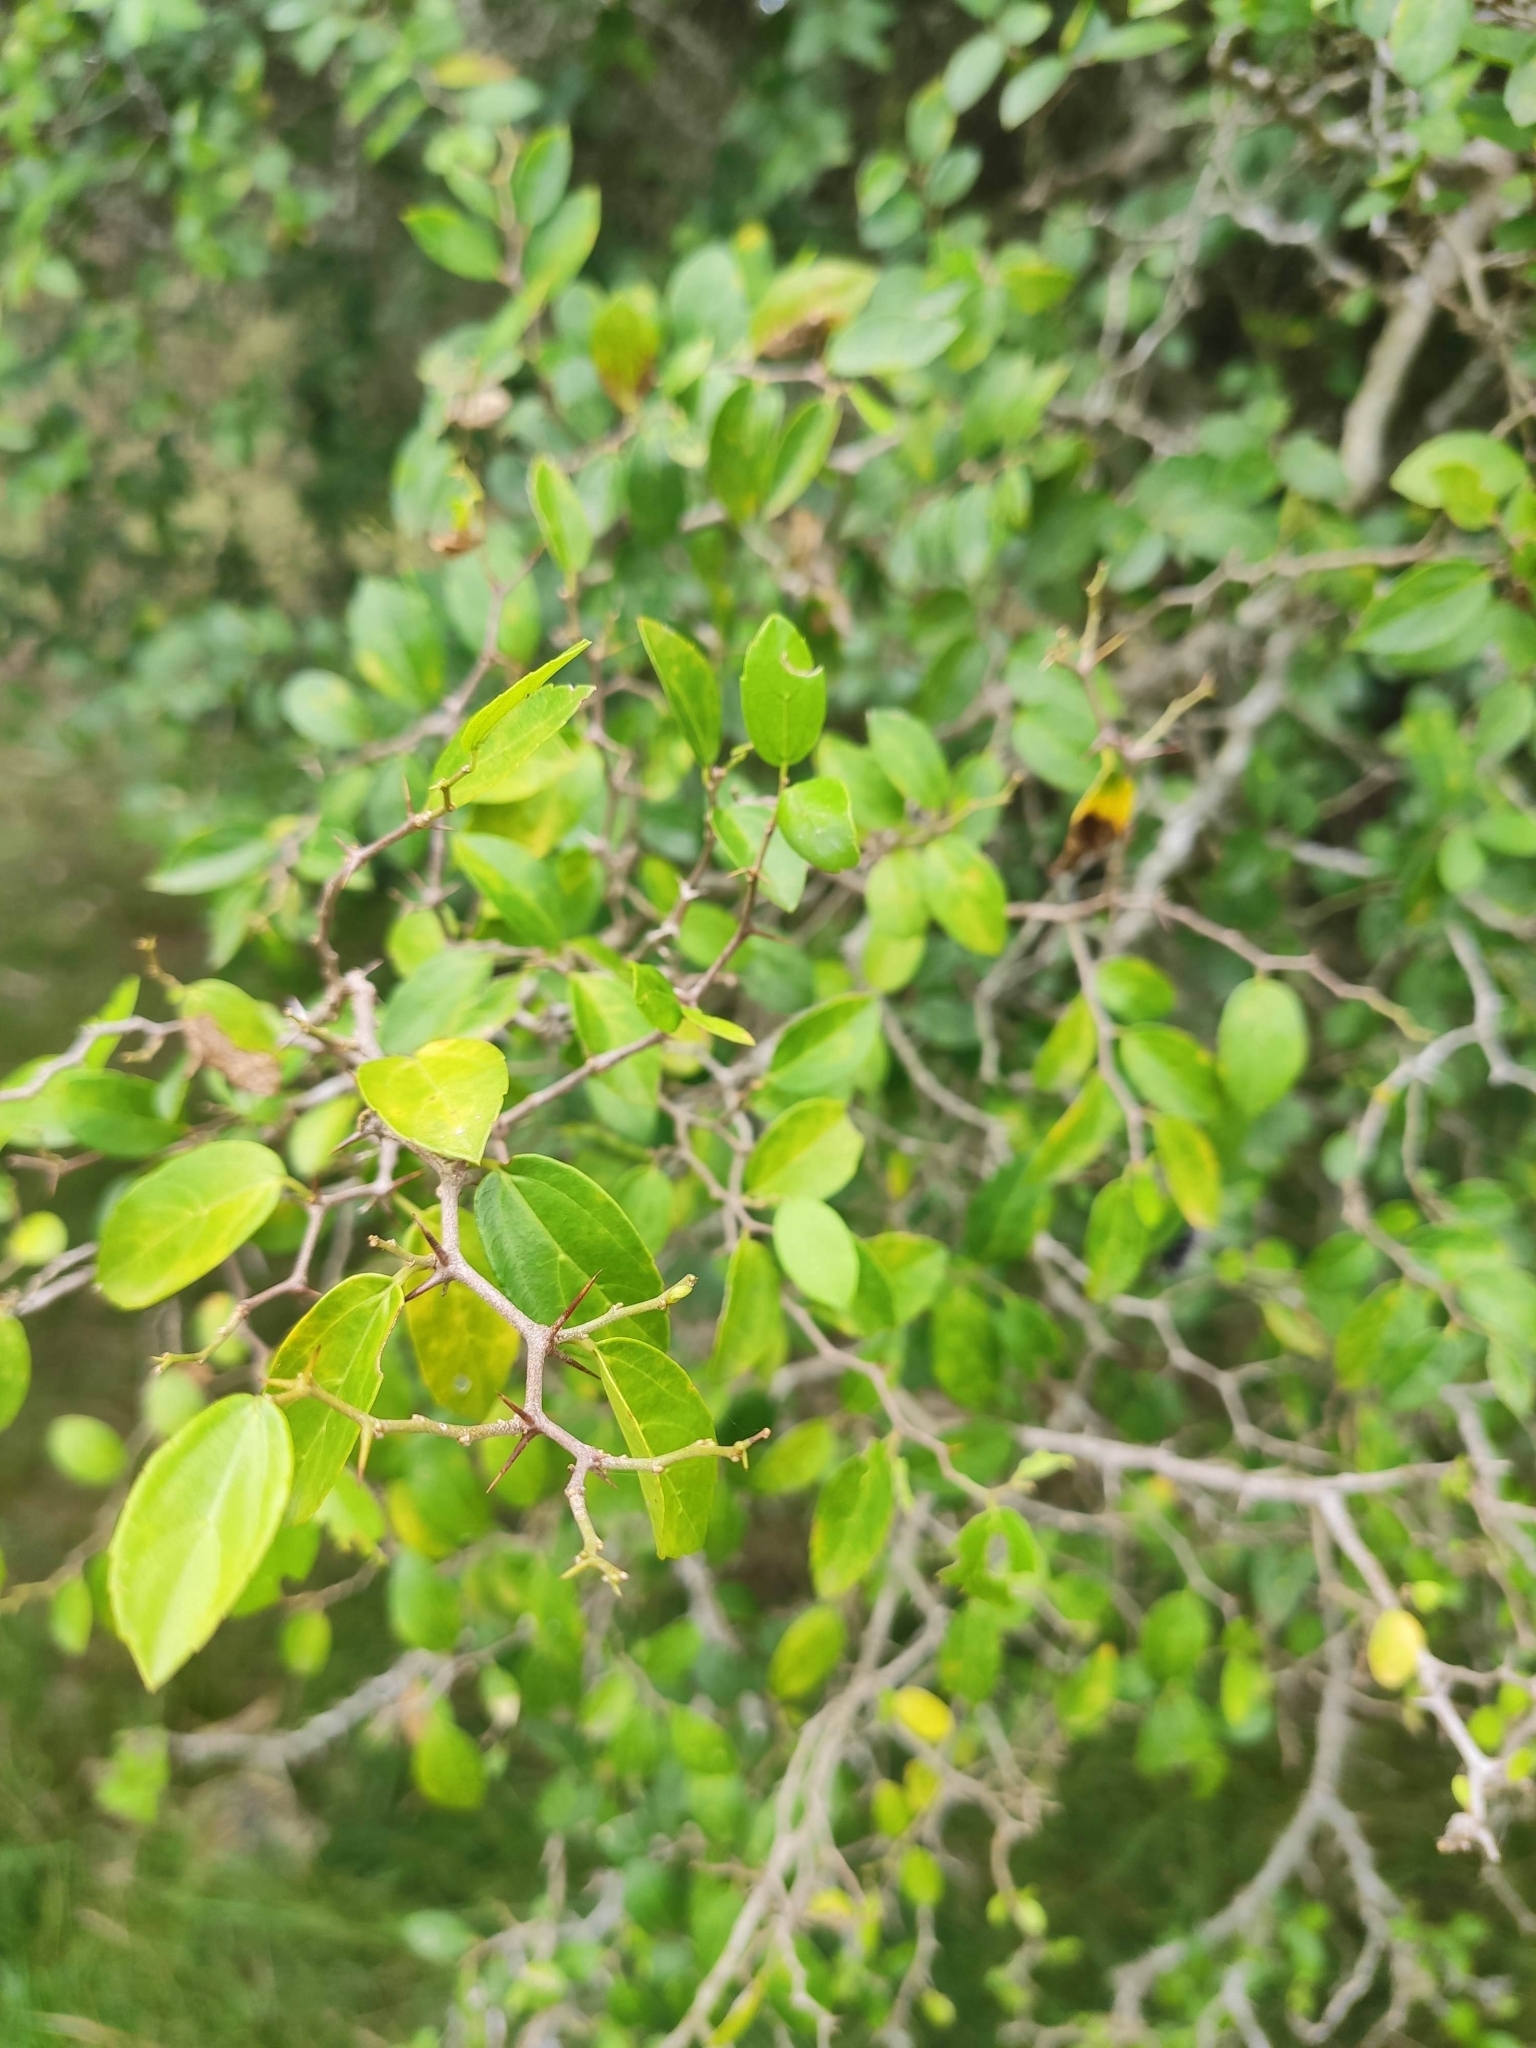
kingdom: Plantae
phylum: Tracheophyta
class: Magnoliopsida
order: Rosales
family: Cannabaceae
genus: Celtis
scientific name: Celtis tala
